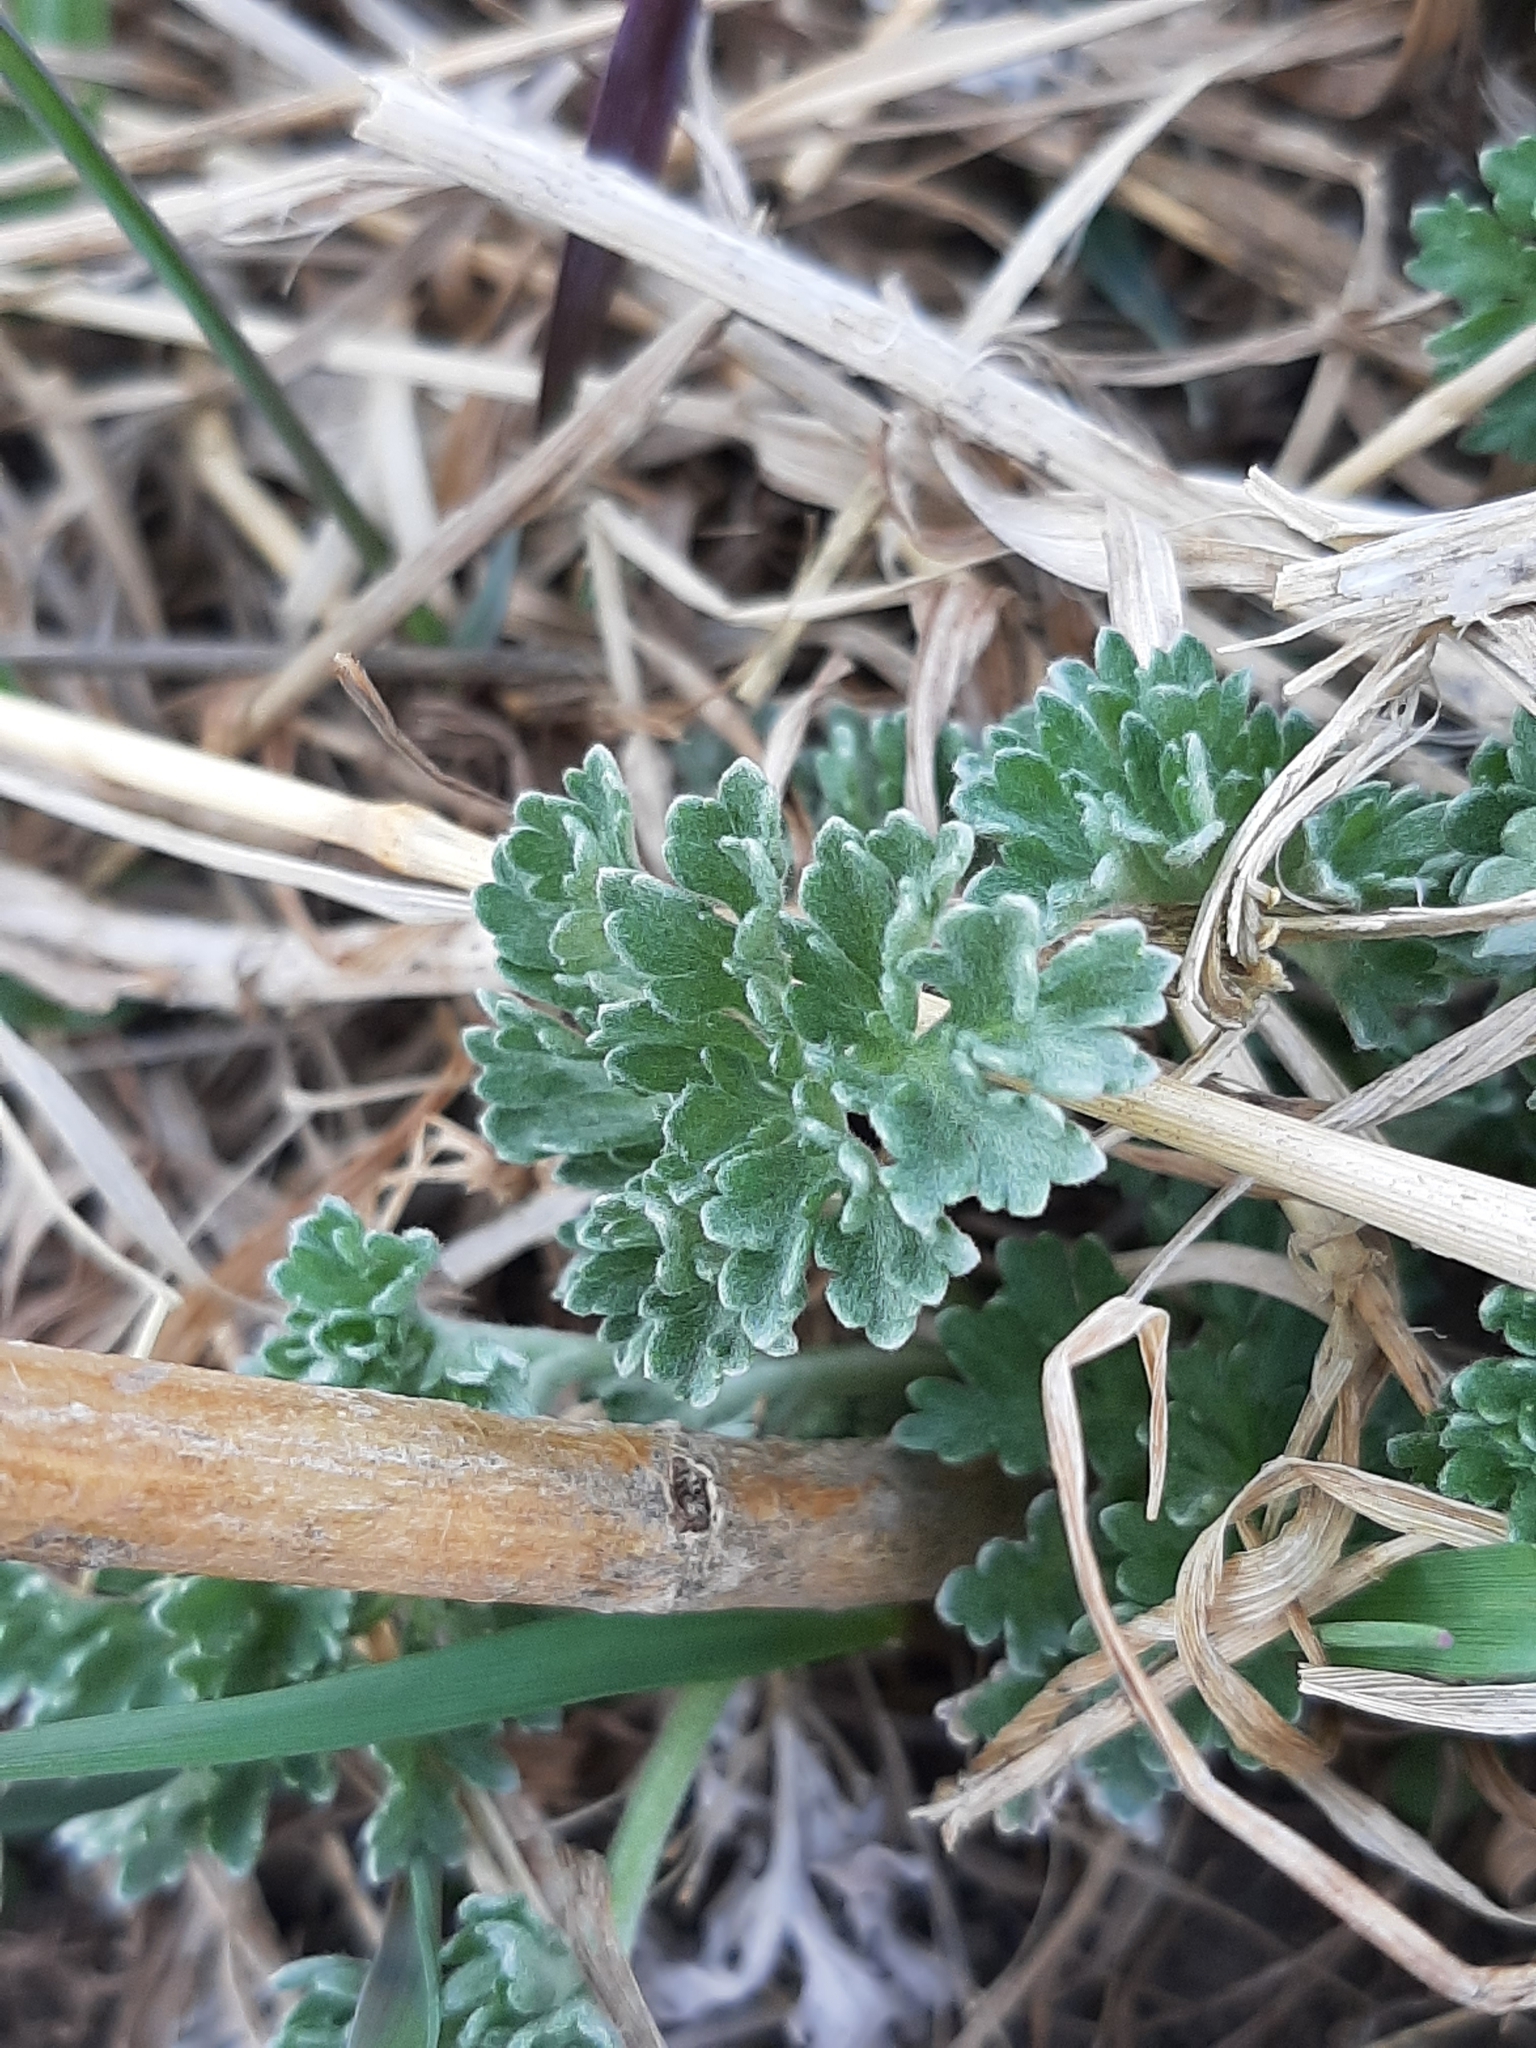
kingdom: Plantae
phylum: Tracheophyta
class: Magnoliopsida
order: Asterales
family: Asteraceae
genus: Artemisia
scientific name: Artemisia absinthium
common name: Wormwood
